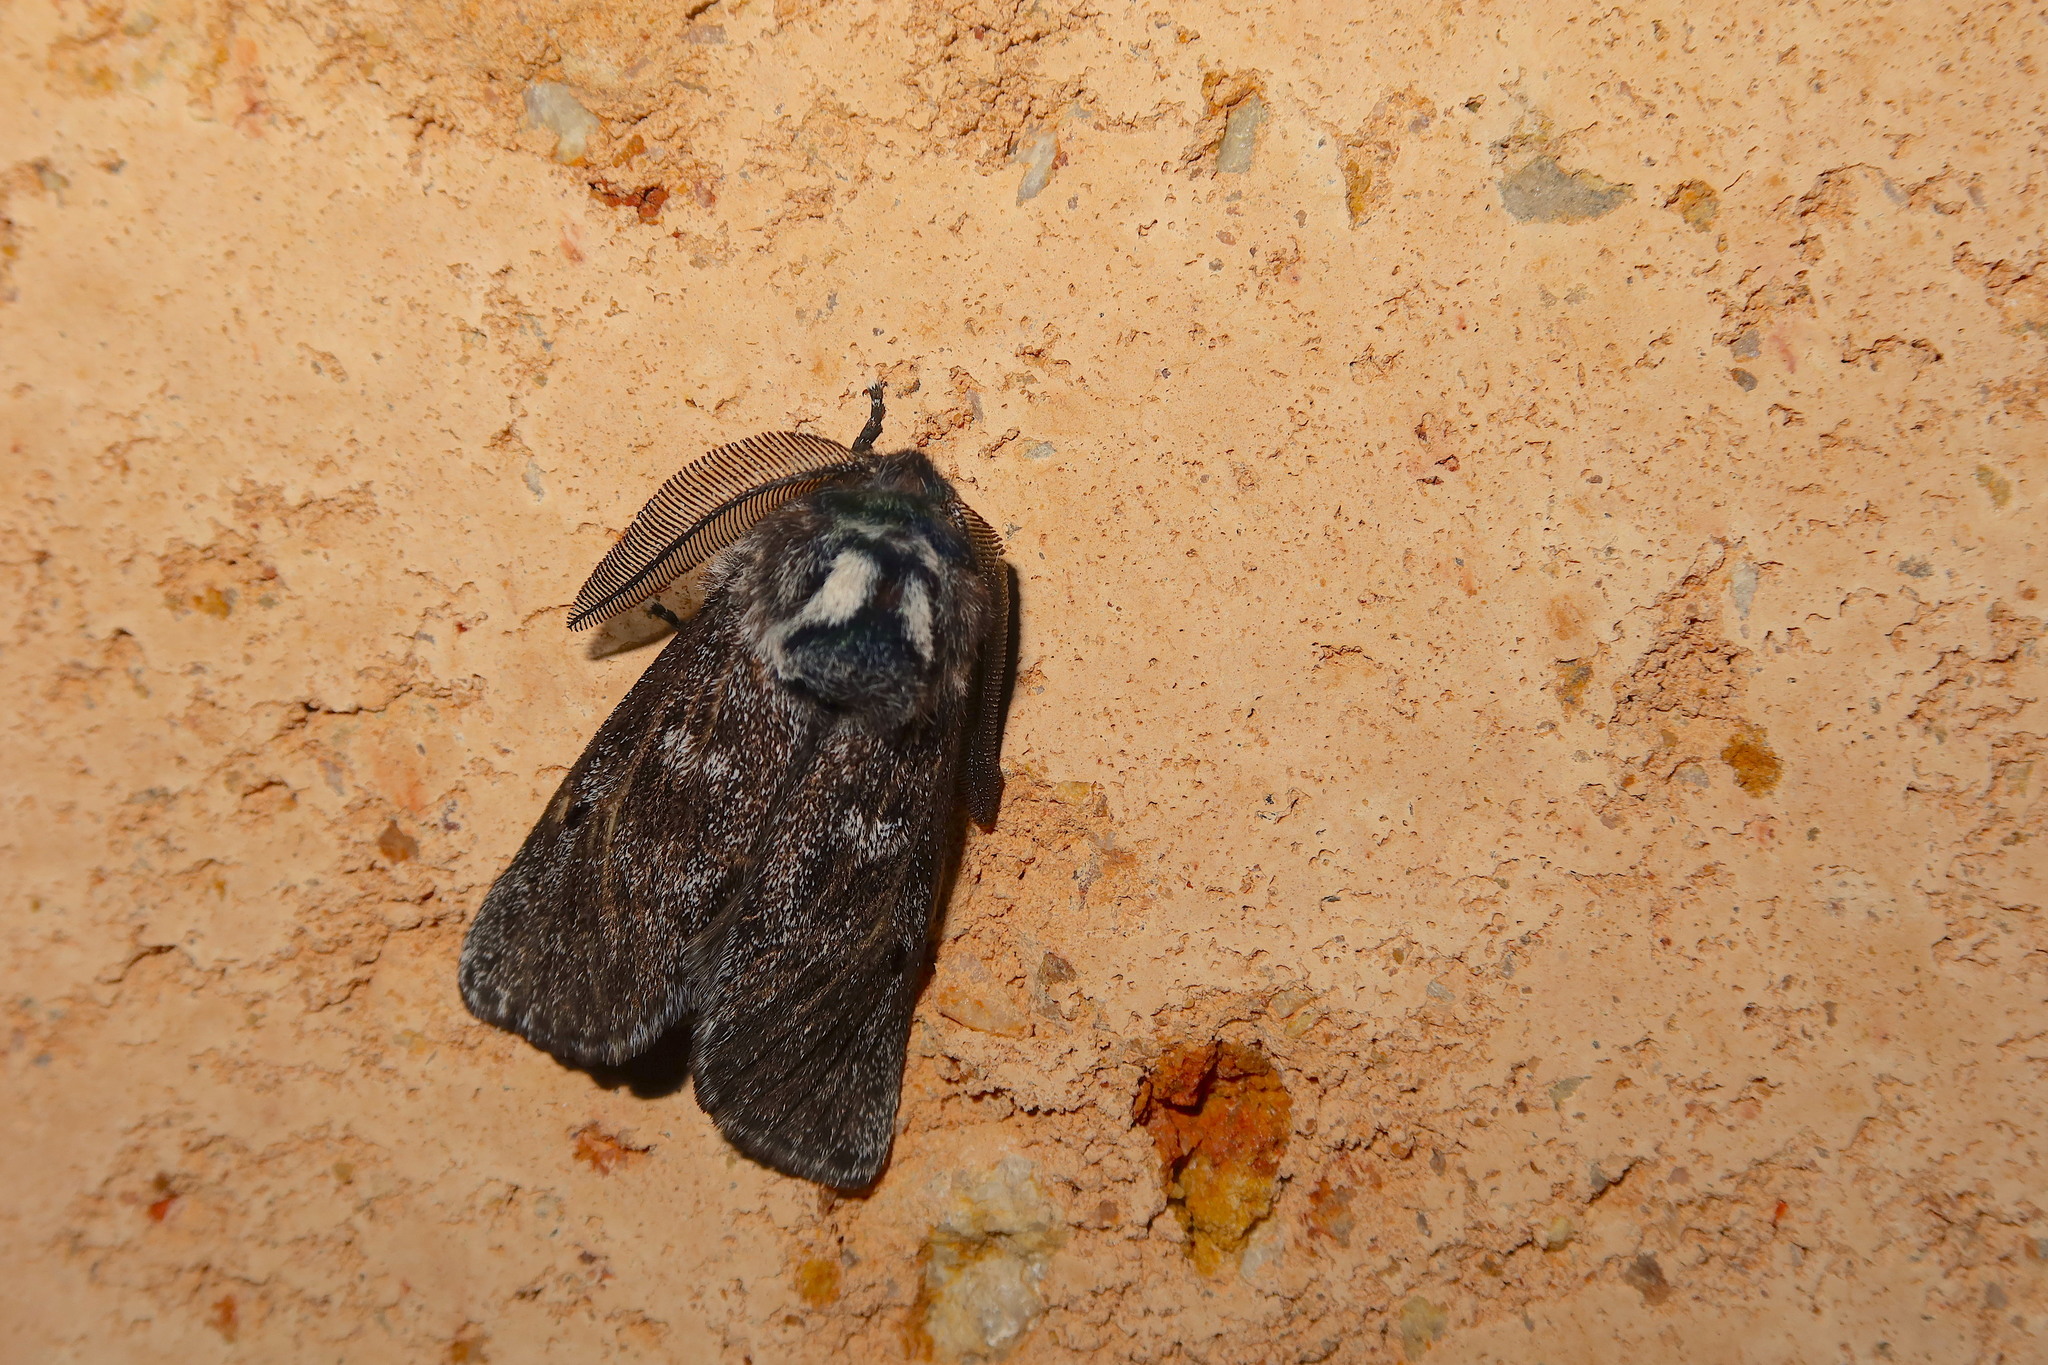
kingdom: Animalia
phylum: Arthropoda
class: Insecta
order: Lepidoptera
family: Cossidae
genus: Ptilomacra
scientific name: Ptilomacra senex
